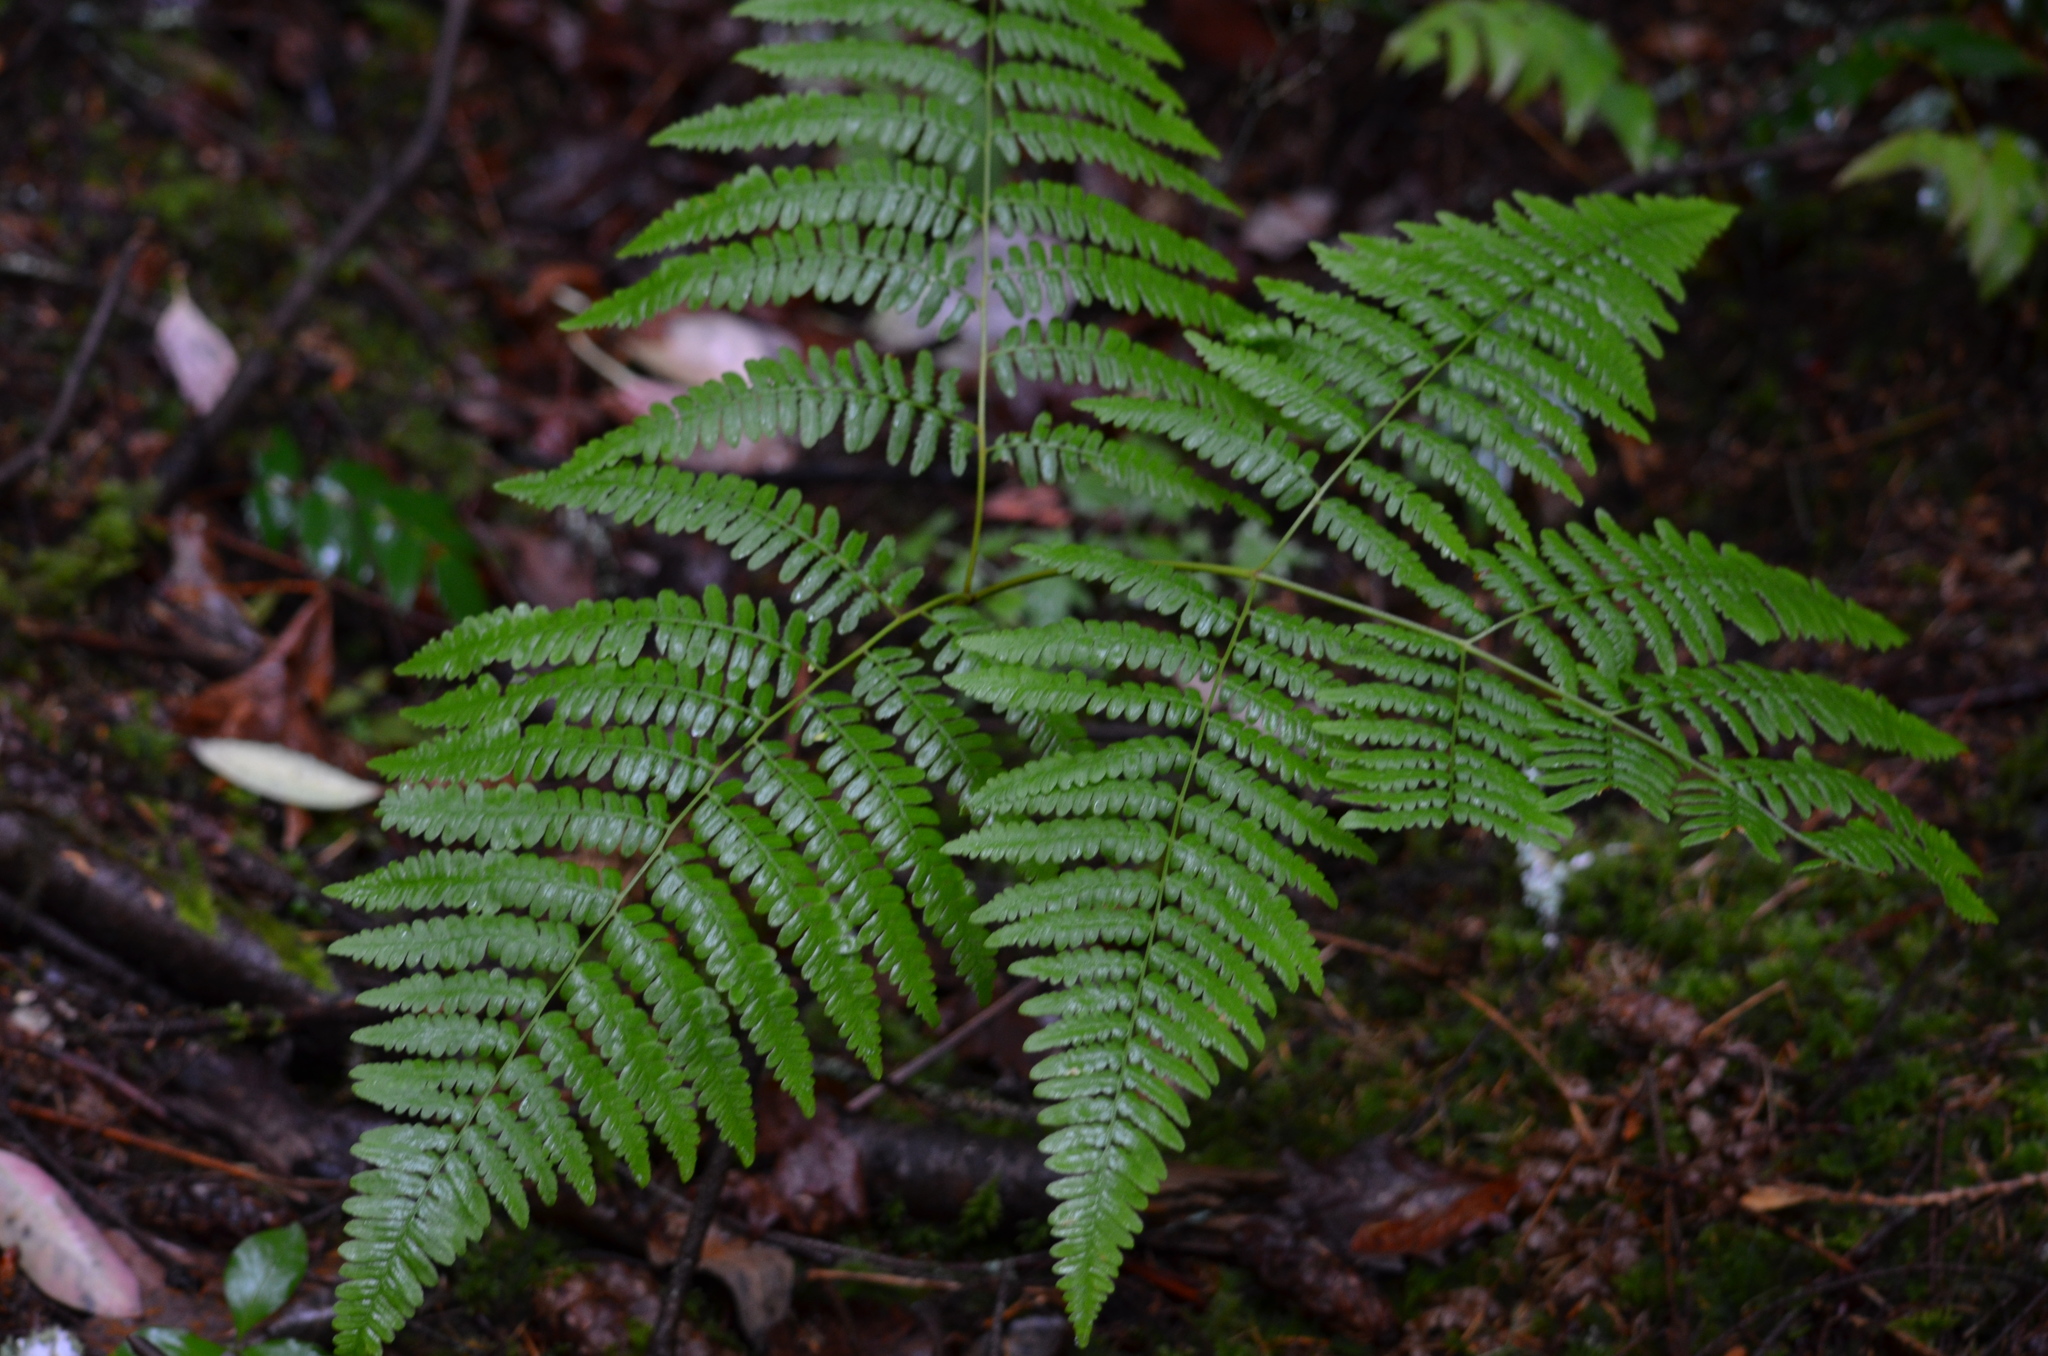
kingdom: Plantae
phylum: Tracheophyta
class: Polypodiopsida
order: Polypodiales
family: Dennstaedtiaceae
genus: Pteridium
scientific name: Pteridium aquilinum
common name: Bracken
